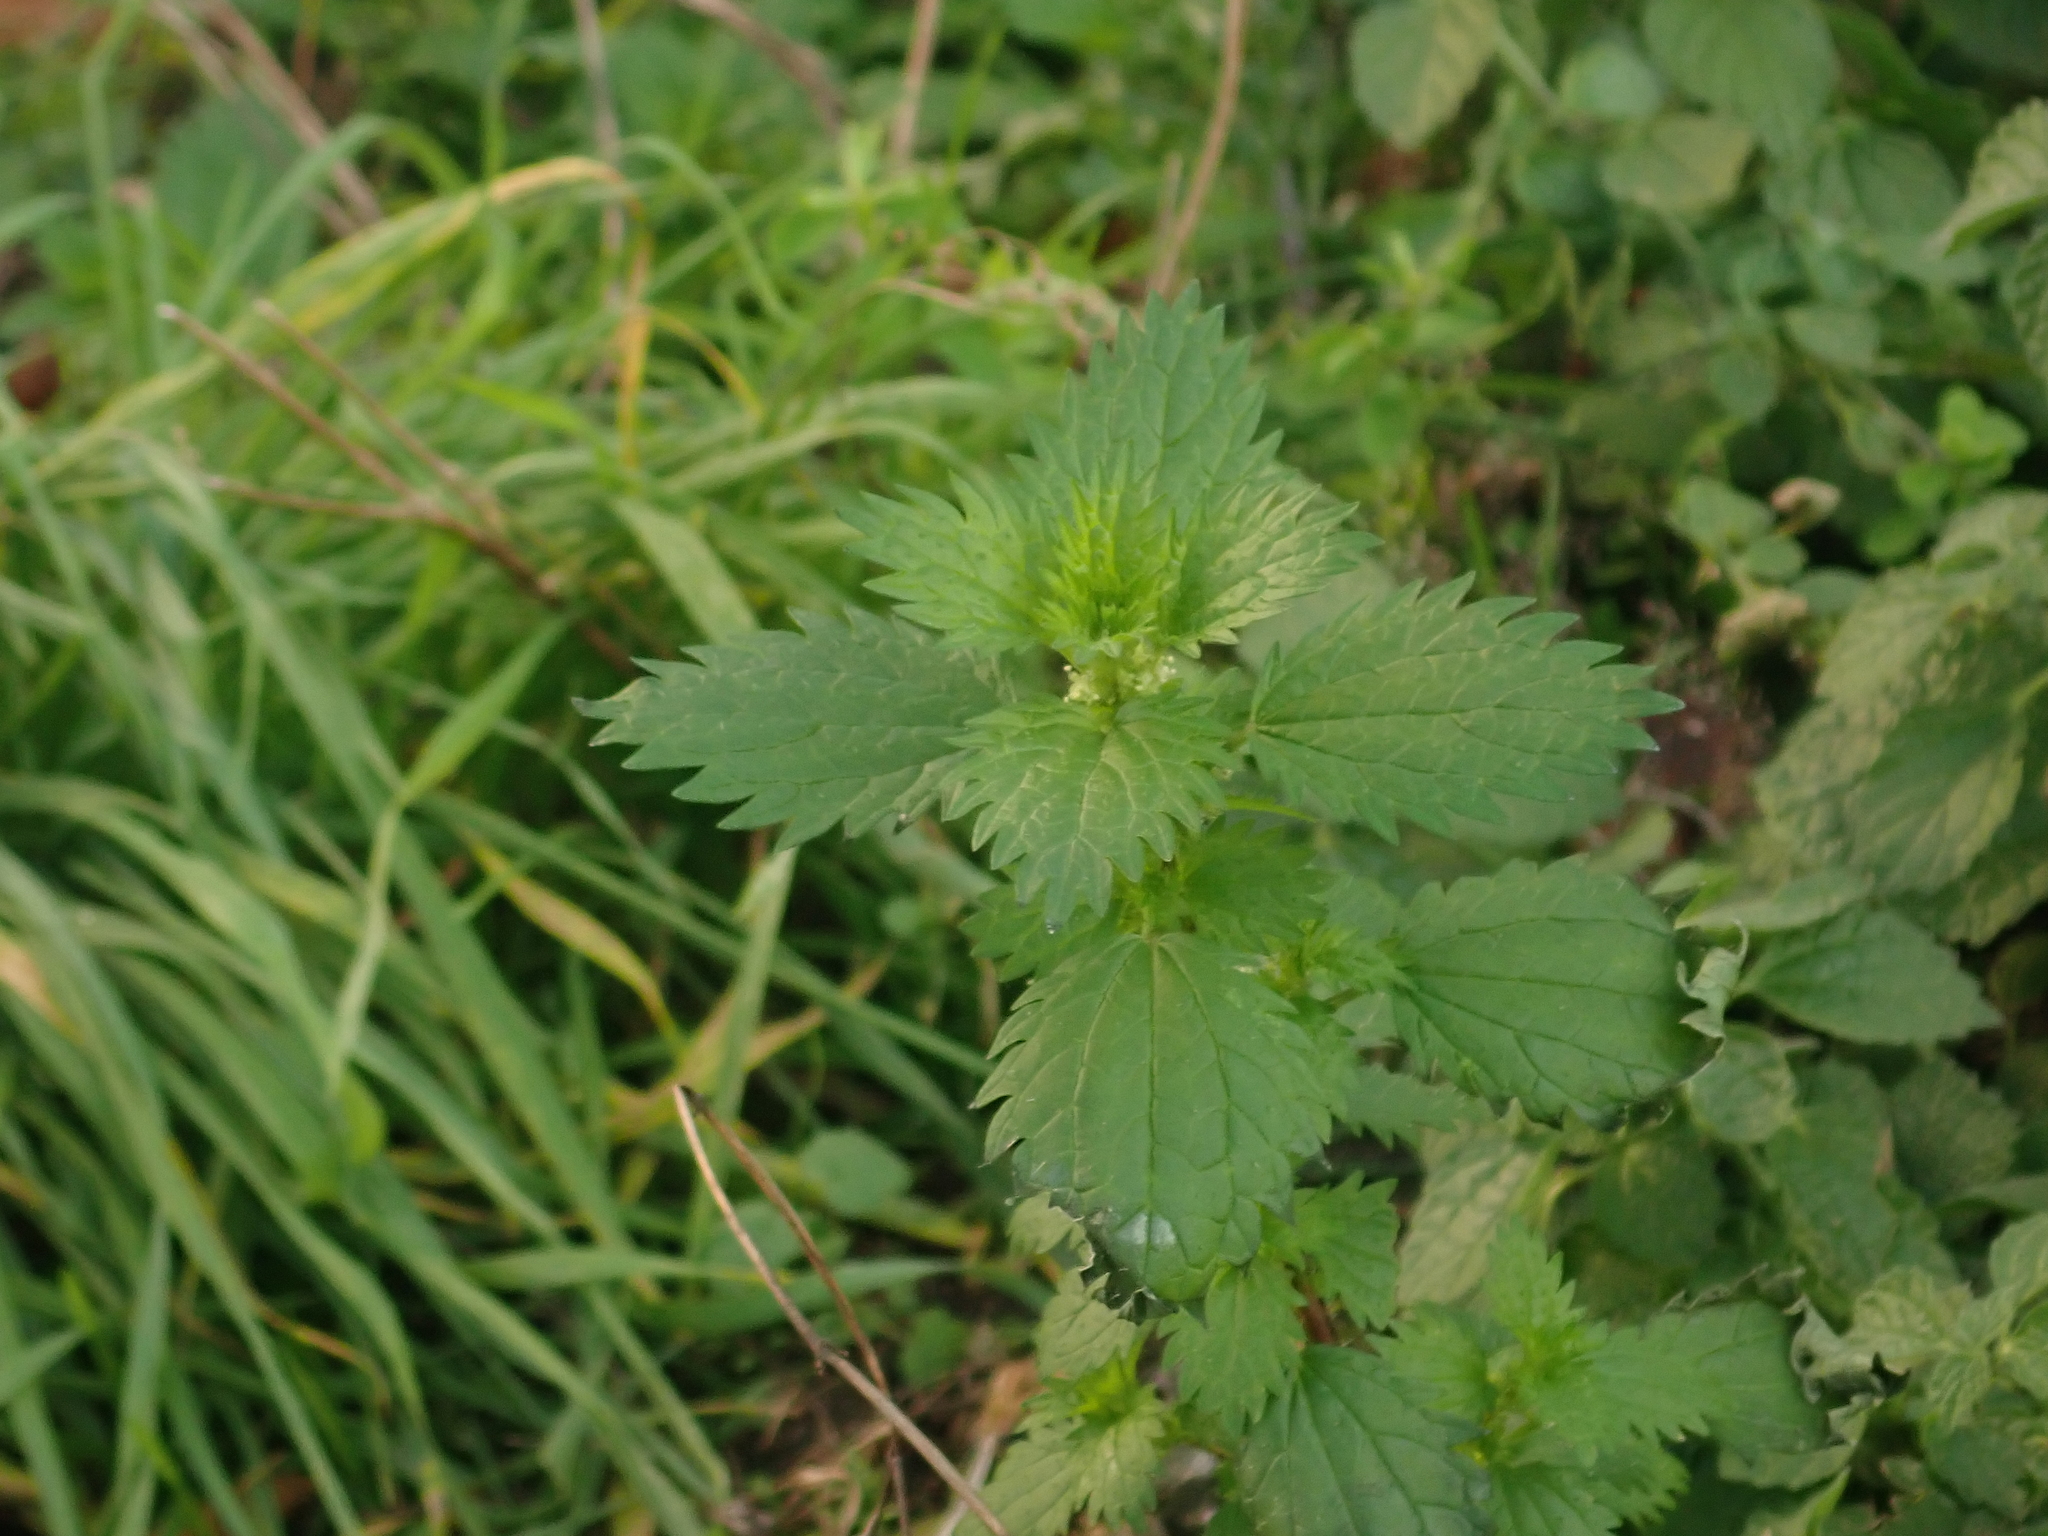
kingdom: Plantae
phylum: Tracheophyta
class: Magnoliopsida
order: Rosales
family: Urticaceae
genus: Urtica
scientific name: Urtica urens
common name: Dwarf nettle
